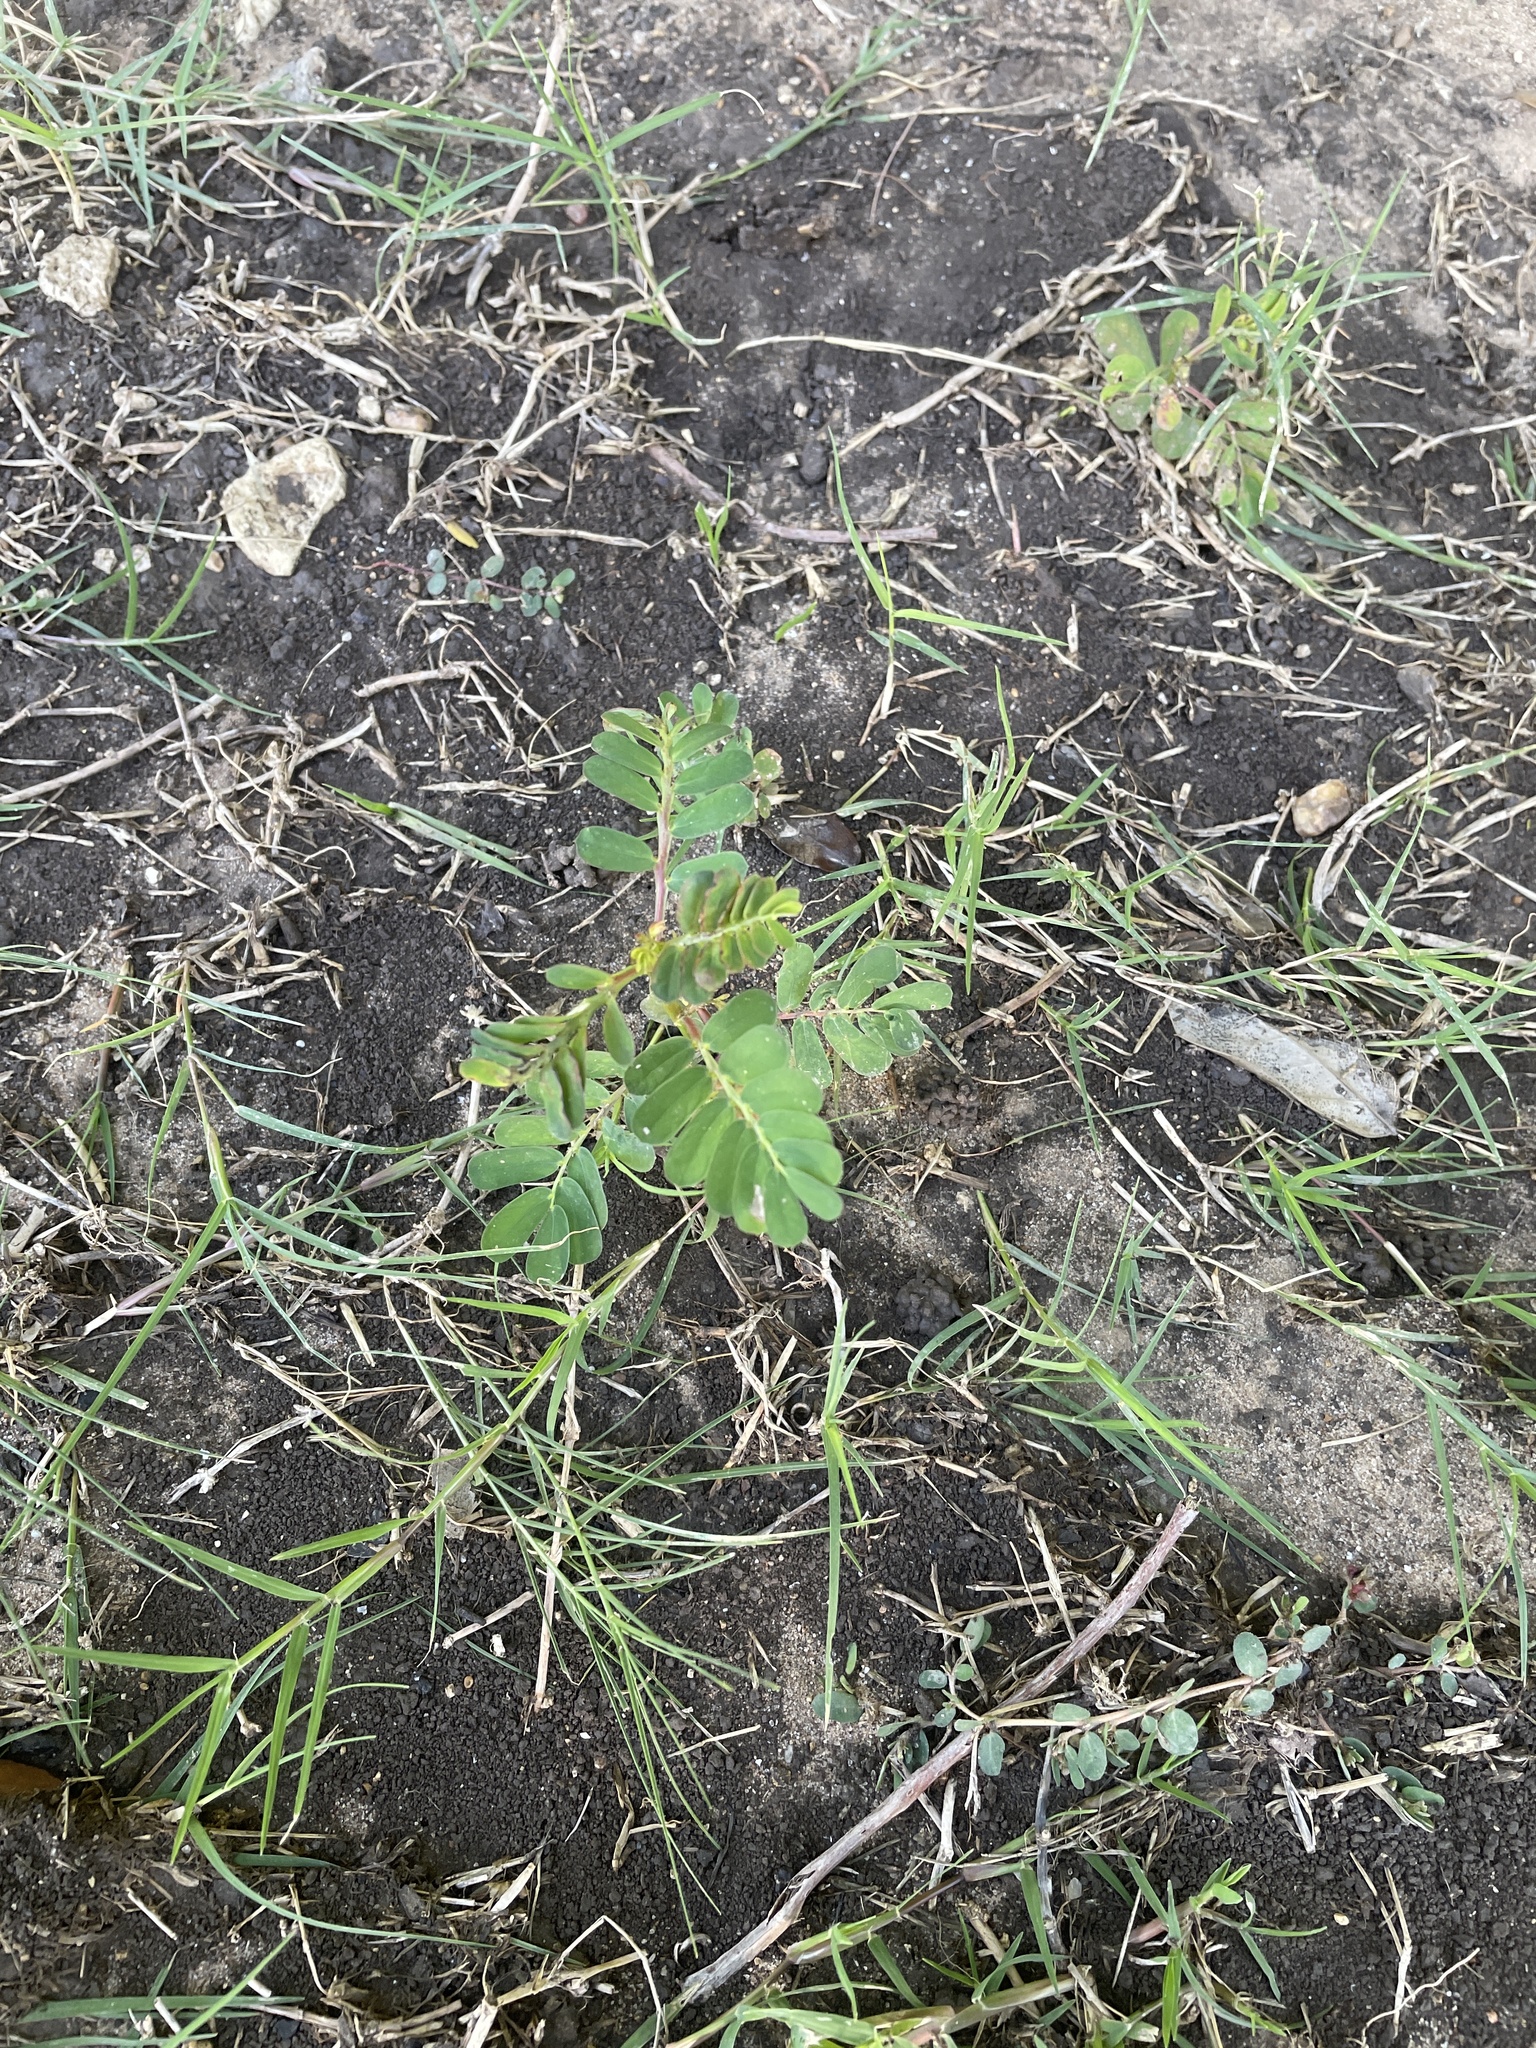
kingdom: Plantae
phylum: Tracheophyta
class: Magnoliopsida
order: Malpighiales
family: Phyllanthaceae
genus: Phyllanthus
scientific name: Phyllanthus urinaria
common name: Chamber bitter
